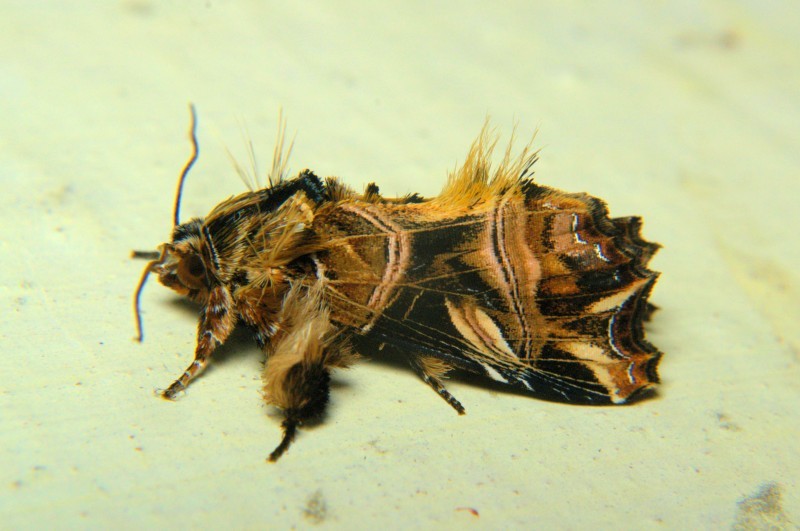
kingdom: Animalia
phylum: Arthropoda
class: Insecta
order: Lepidoptera
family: Noctuidae
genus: Callopistria
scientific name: Callopistria repleta
